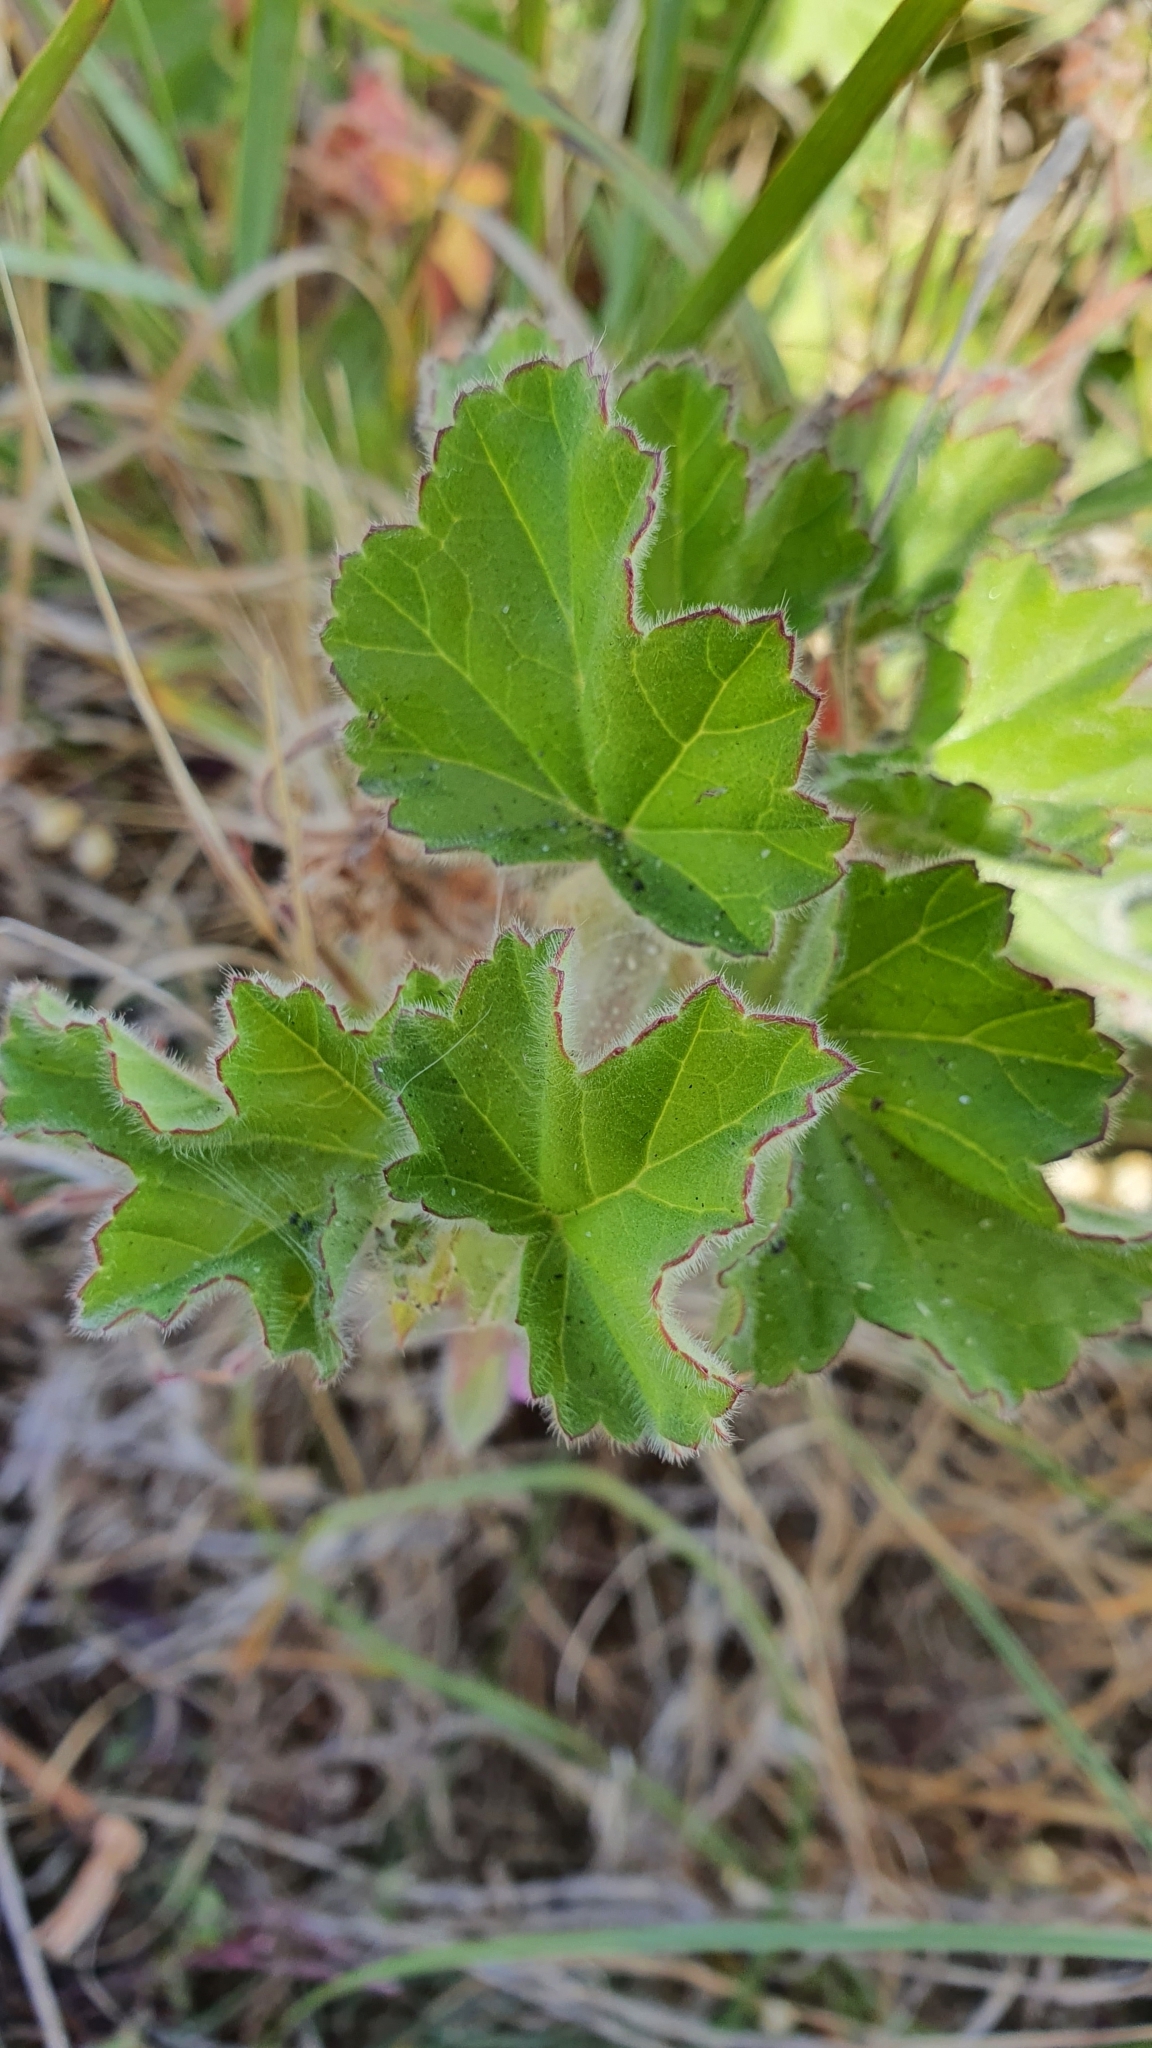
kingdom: Plantae
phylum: Tracheophyta
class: Magnoliopsida
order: Geraniales
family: Geraniaceae
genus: Pelargonium
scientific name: Pelargonium capitatum
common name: Rose scented geranium
